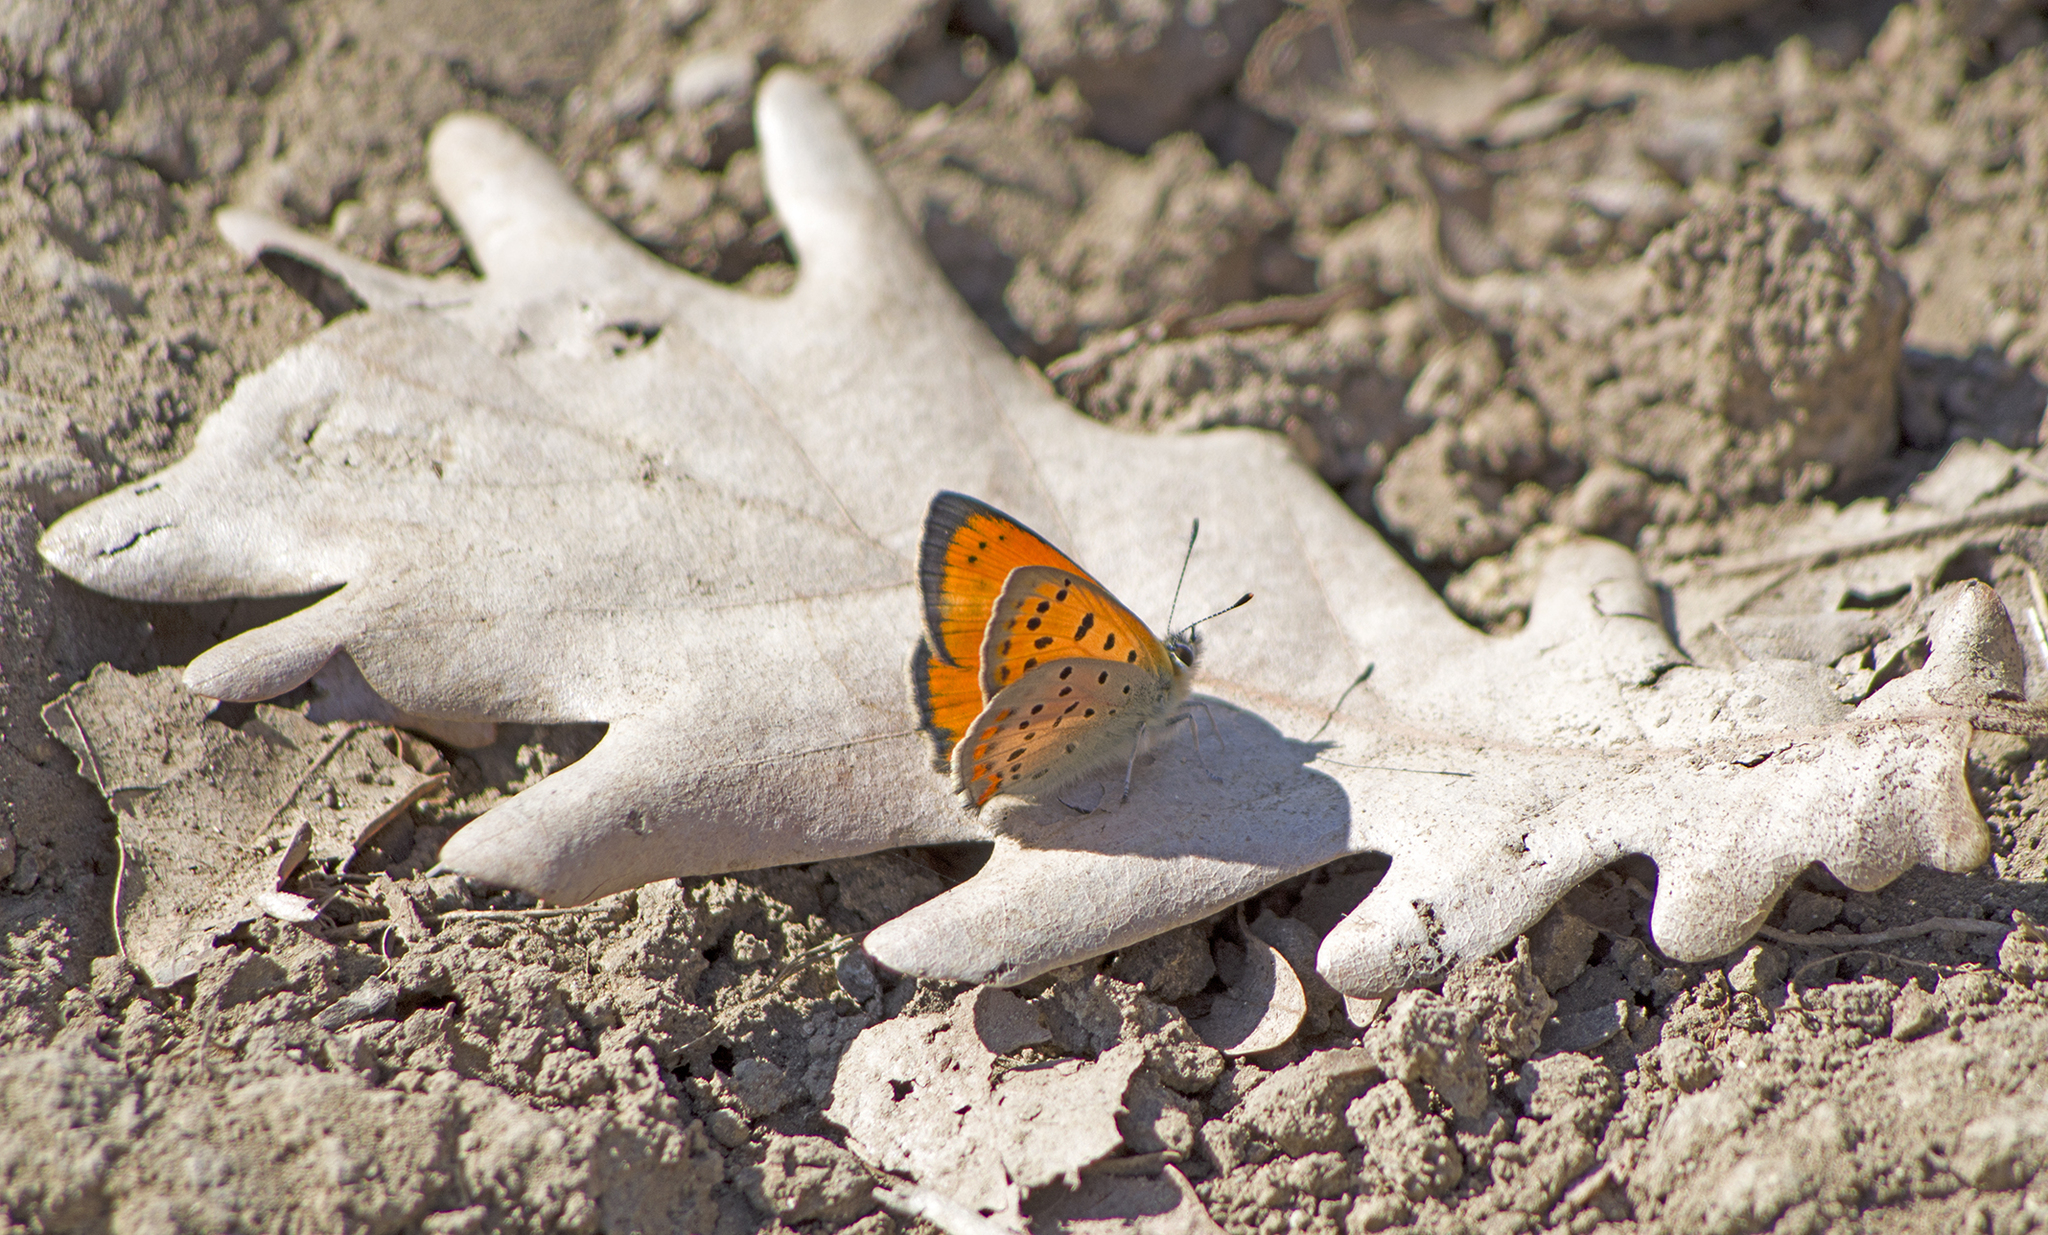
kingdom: Animalia
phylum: Arthropoda
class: Insecta
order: Lepidoptera
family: Lycaenidae
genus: Polyommatus
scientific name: Polyommatus ottomanus
